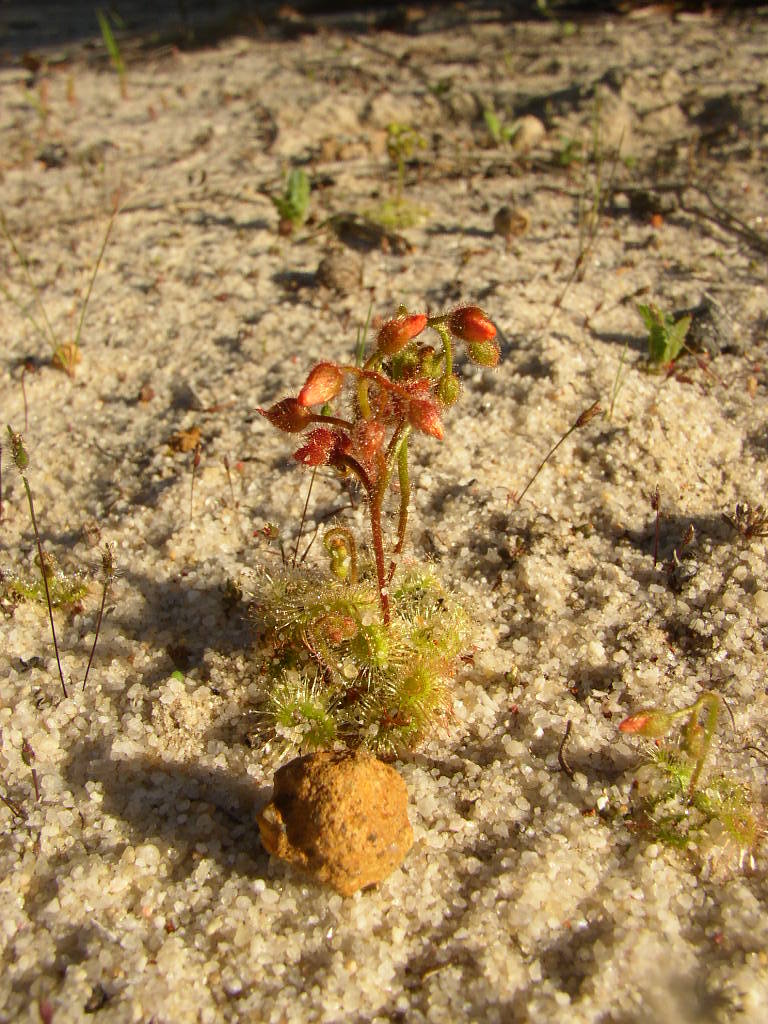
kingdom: Plantae
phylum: Tracheophyta
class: Magnoliopsida
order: Caryophyllales
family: Droseraceae
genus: Drosera
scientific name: Drosera glanduligera
